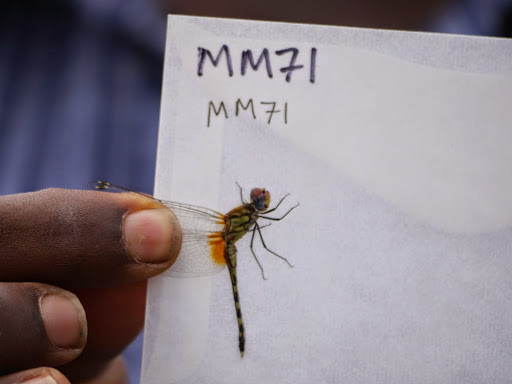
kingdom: Animalia
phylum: Arthropoda
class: Insecta
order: Odonata
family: Libellulidae
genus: Diplacodes
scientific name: Diplacodes luminans
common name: Barbet percher
